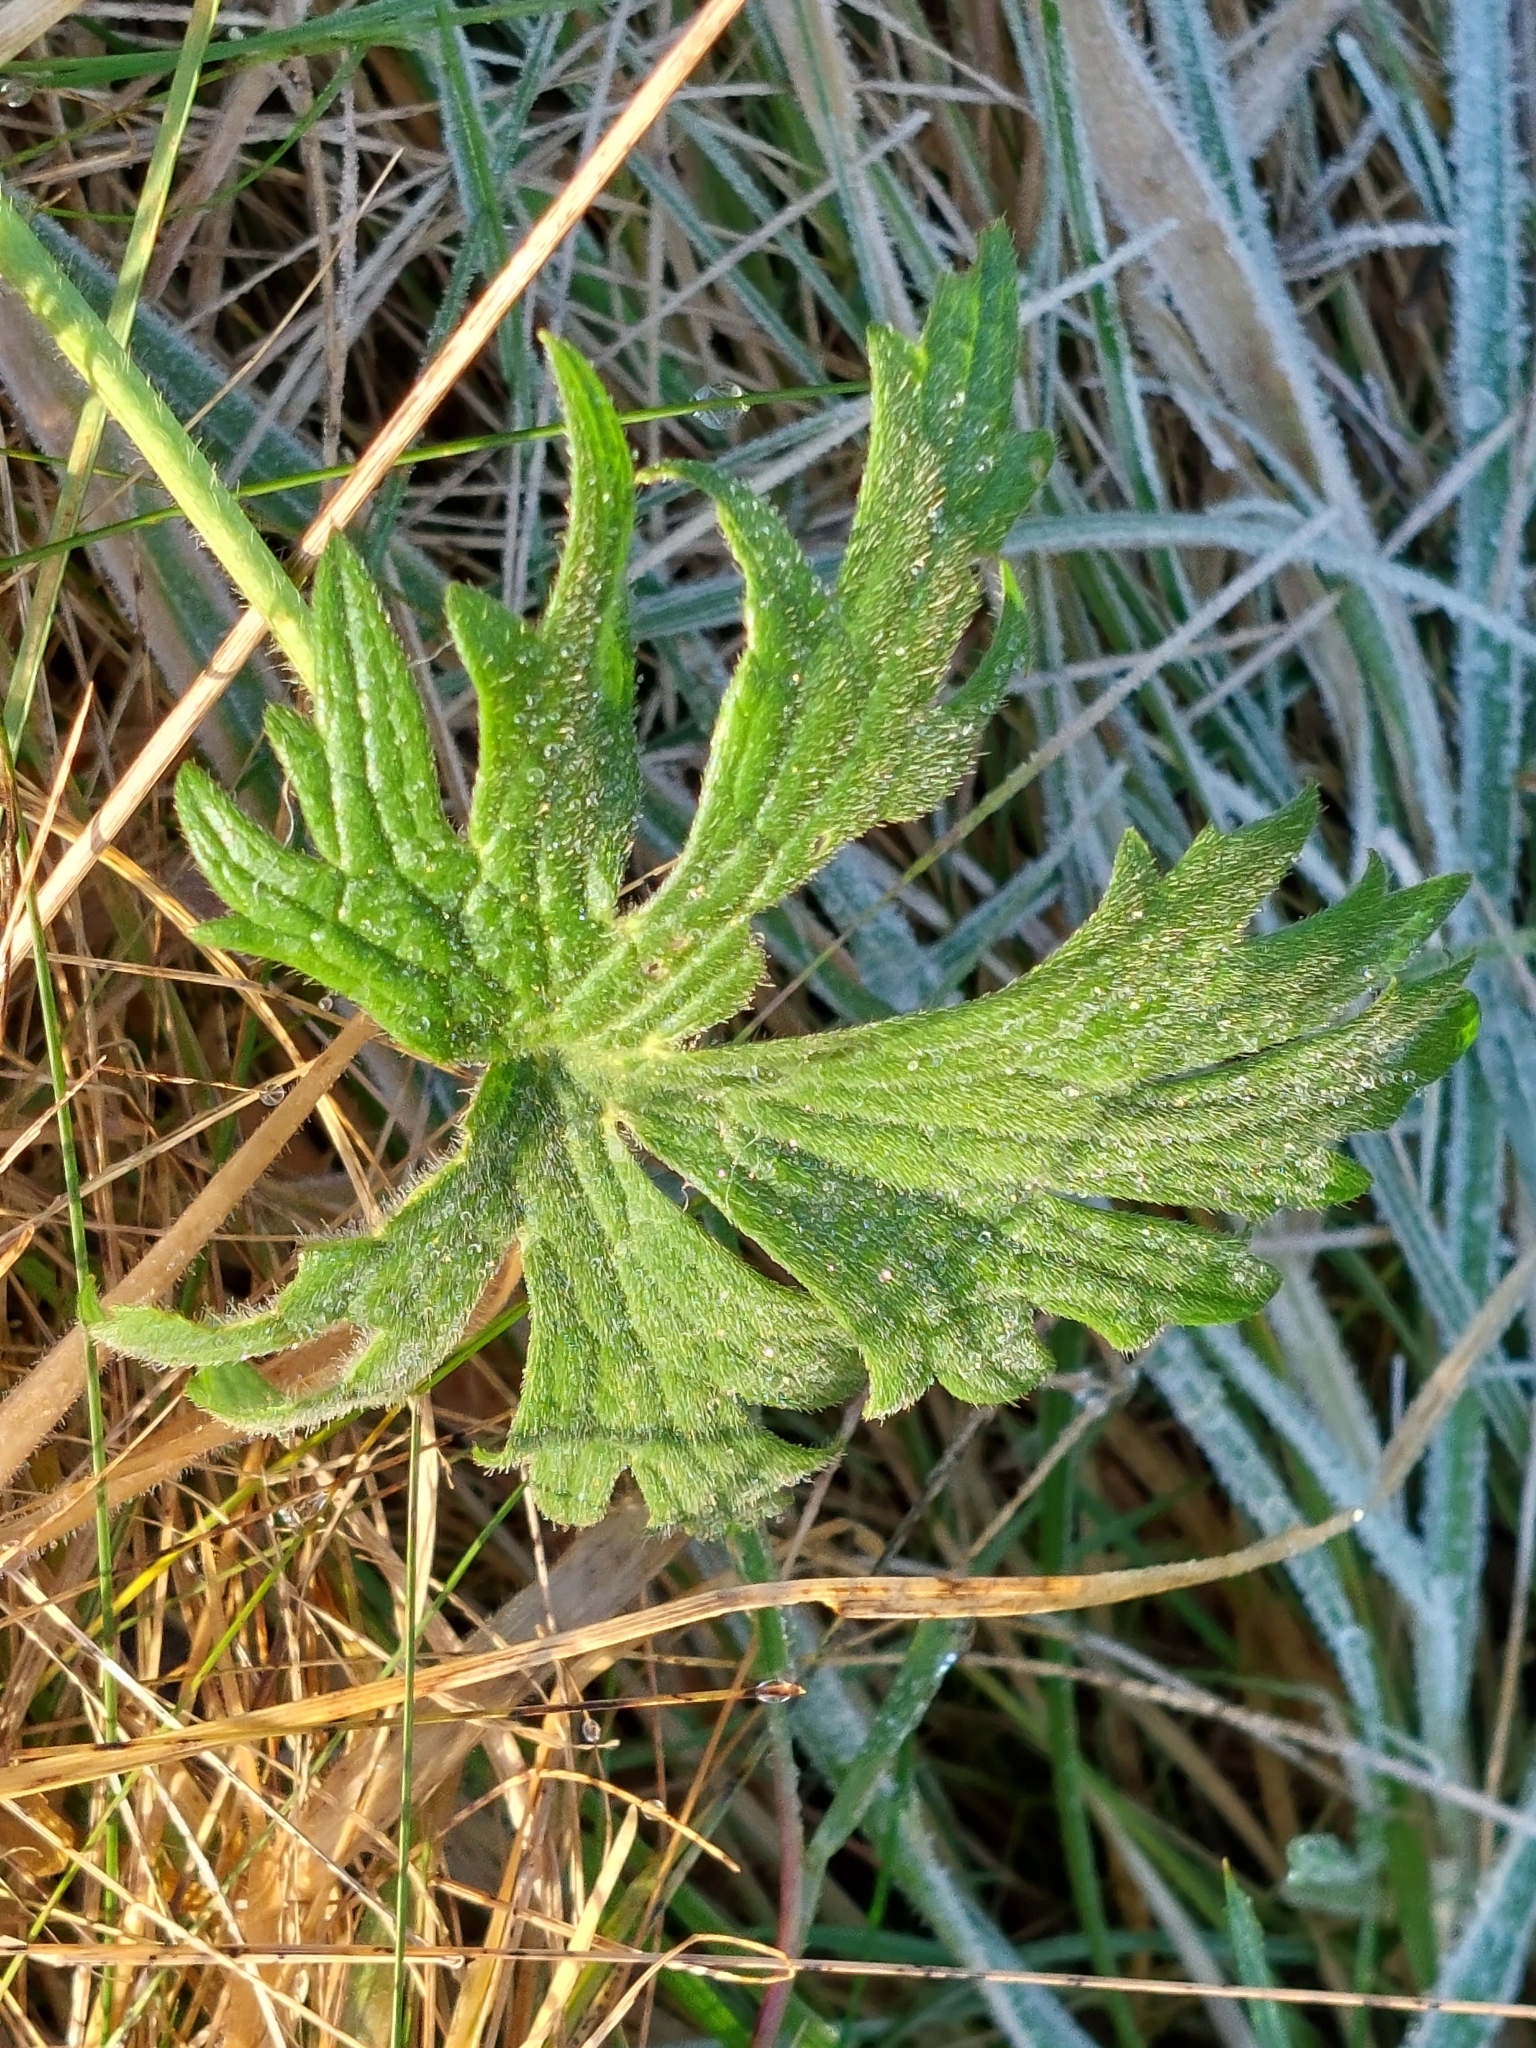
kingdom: Plantae
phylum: Tracheophyta
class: Magnoliopsida
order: Ranunculales
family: Ranunculaceae
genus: Ranunculus
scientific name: Ranunculus acris
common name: Meadow buttercup
